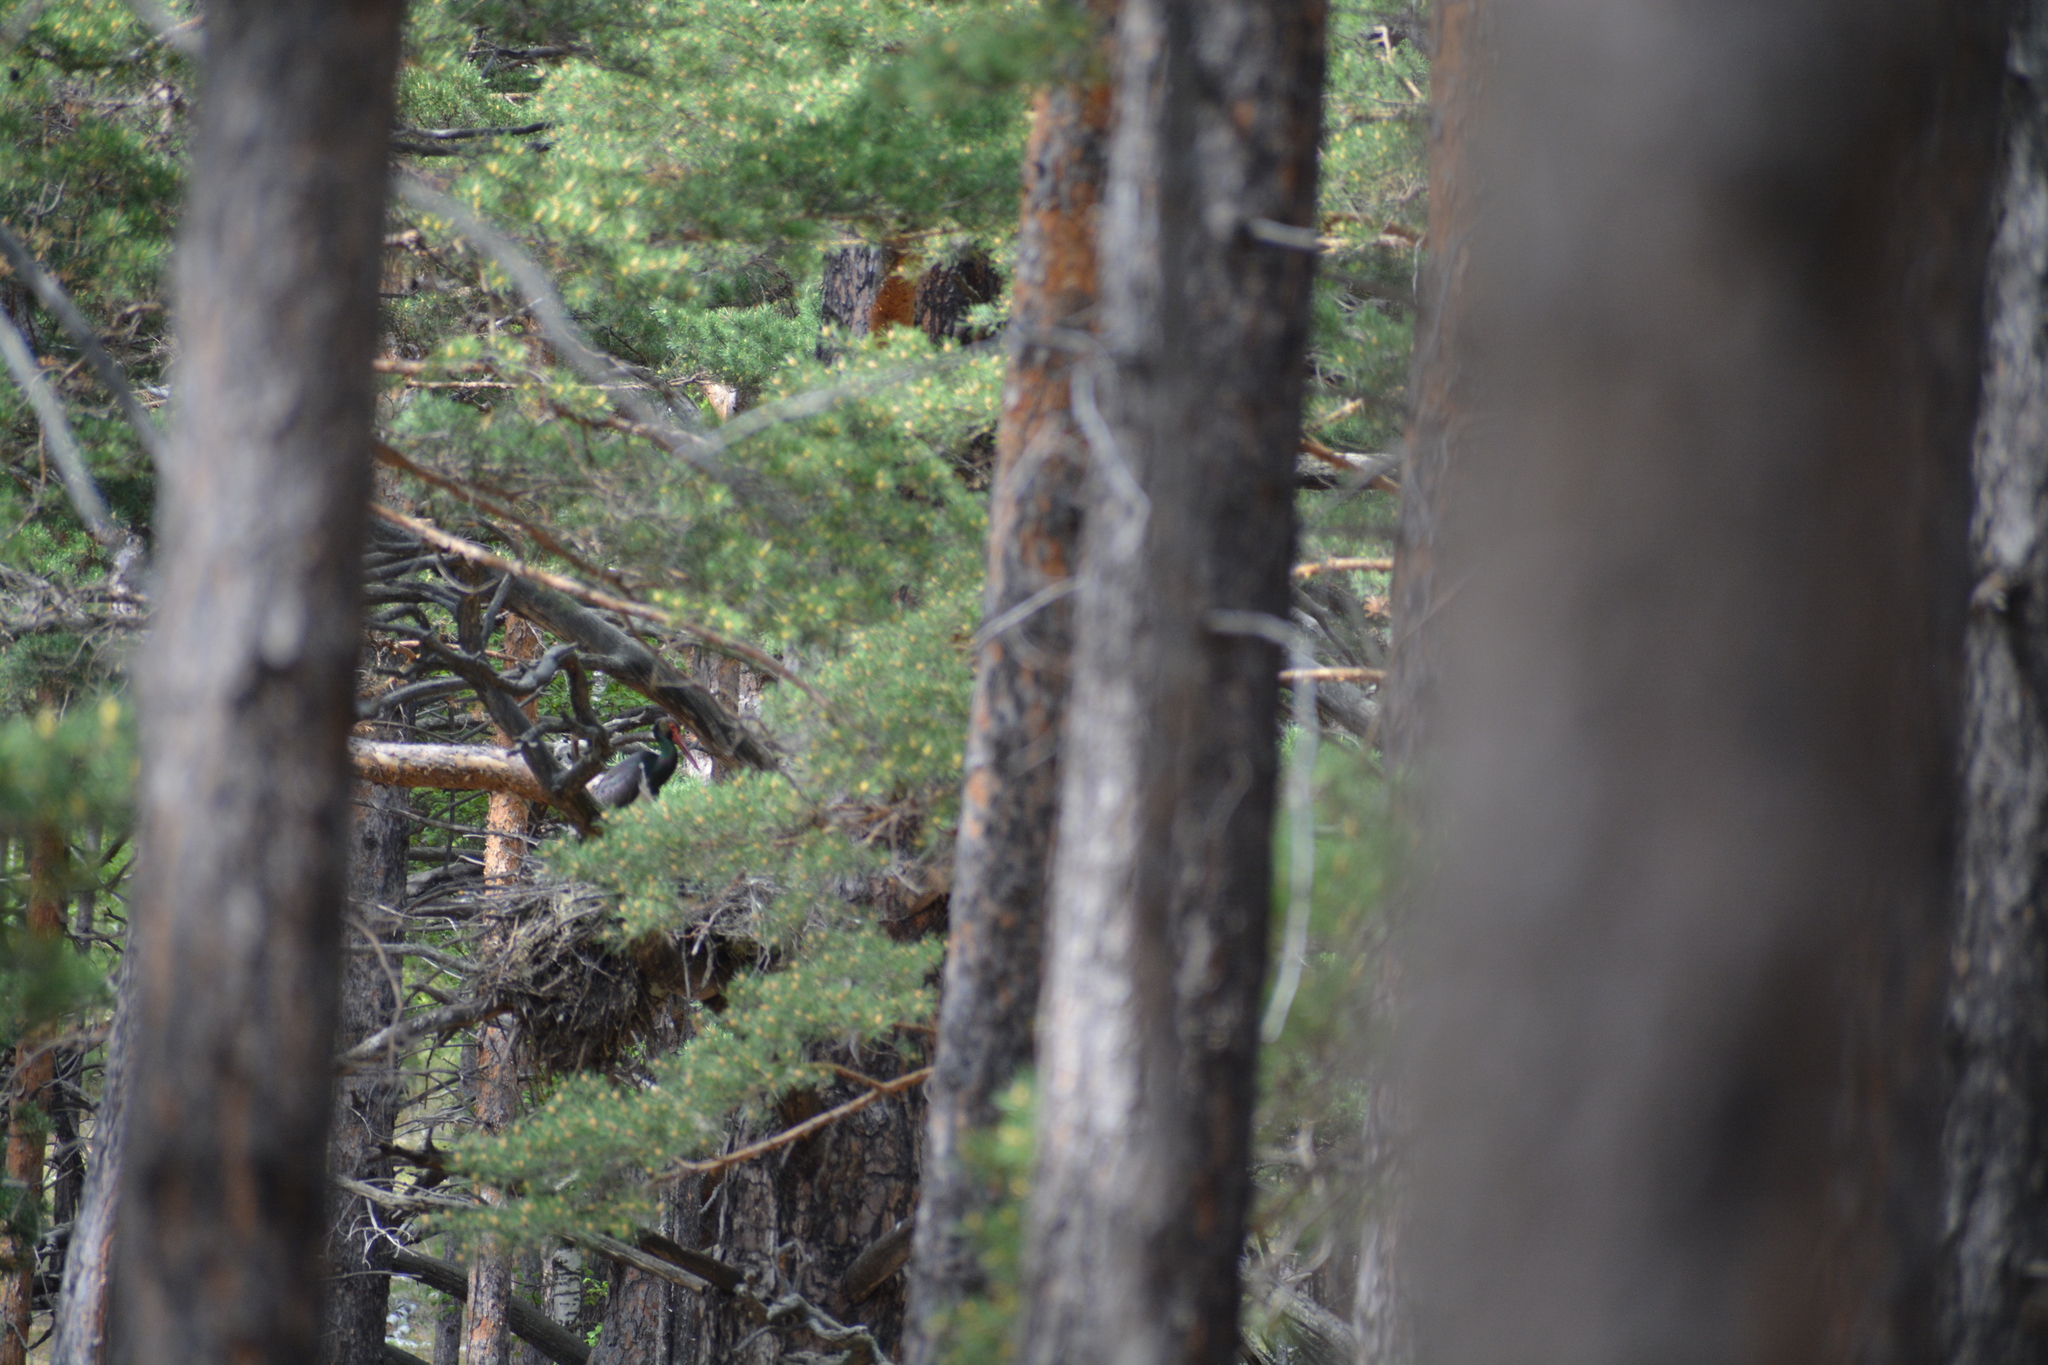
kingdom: Animalia
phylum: Chordata
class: Aves
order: Ciconiiformes
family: Ciconiidae
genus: Ciconia
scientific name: Ciconia nigra
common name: Black stork
